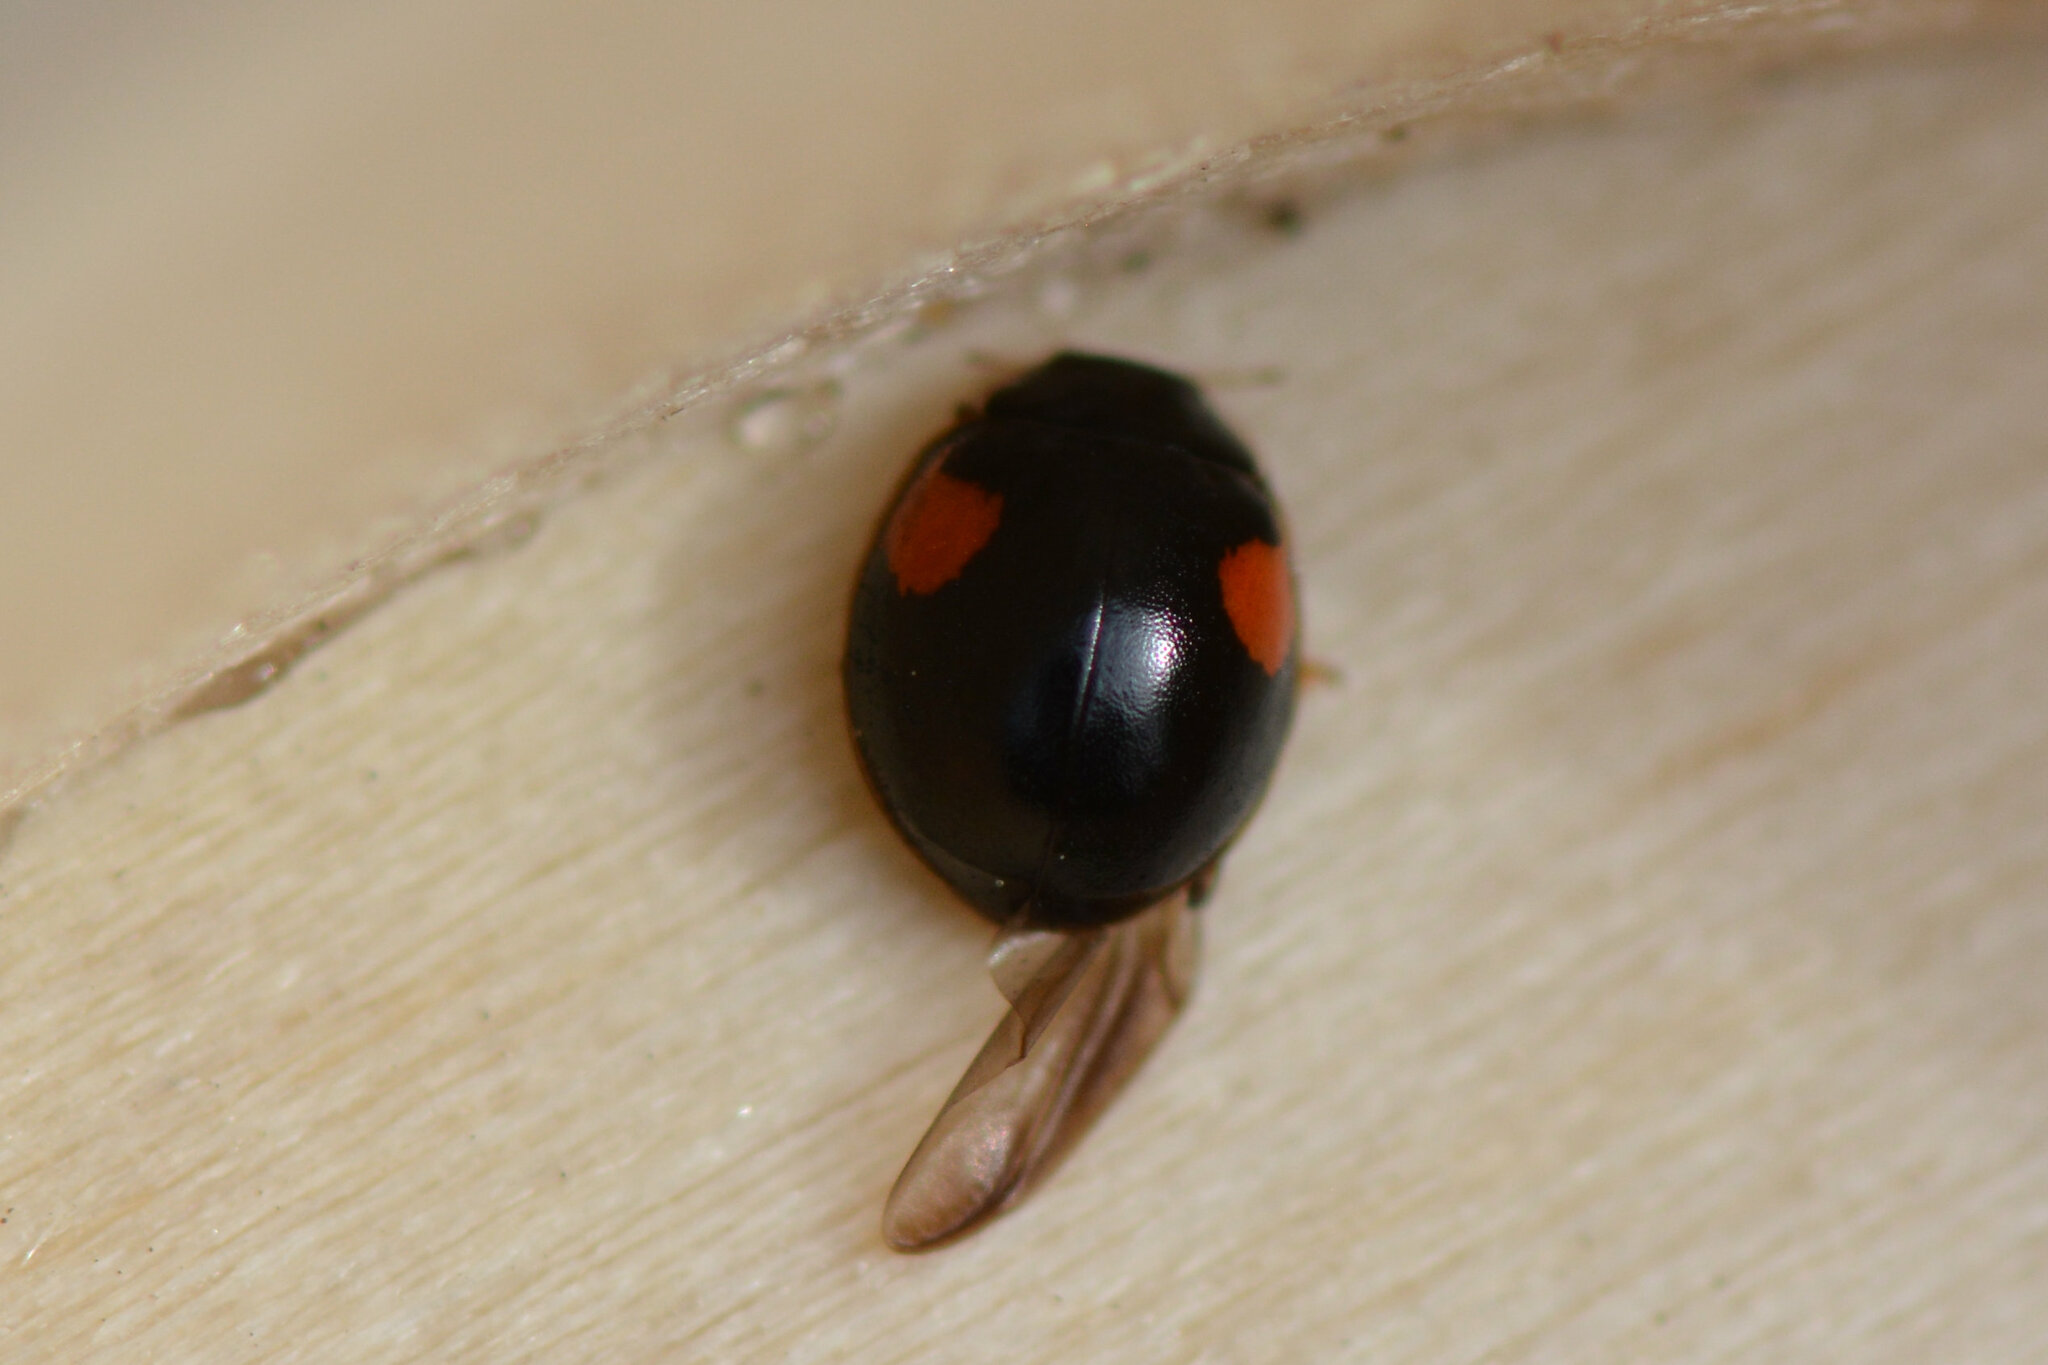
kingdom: Animalia
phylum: Arthropoda
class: Insecta
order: Coleoptera
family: Coccinellidae
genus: Adalia
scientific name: Adalia decempunctata
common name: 10-spot ladybird
